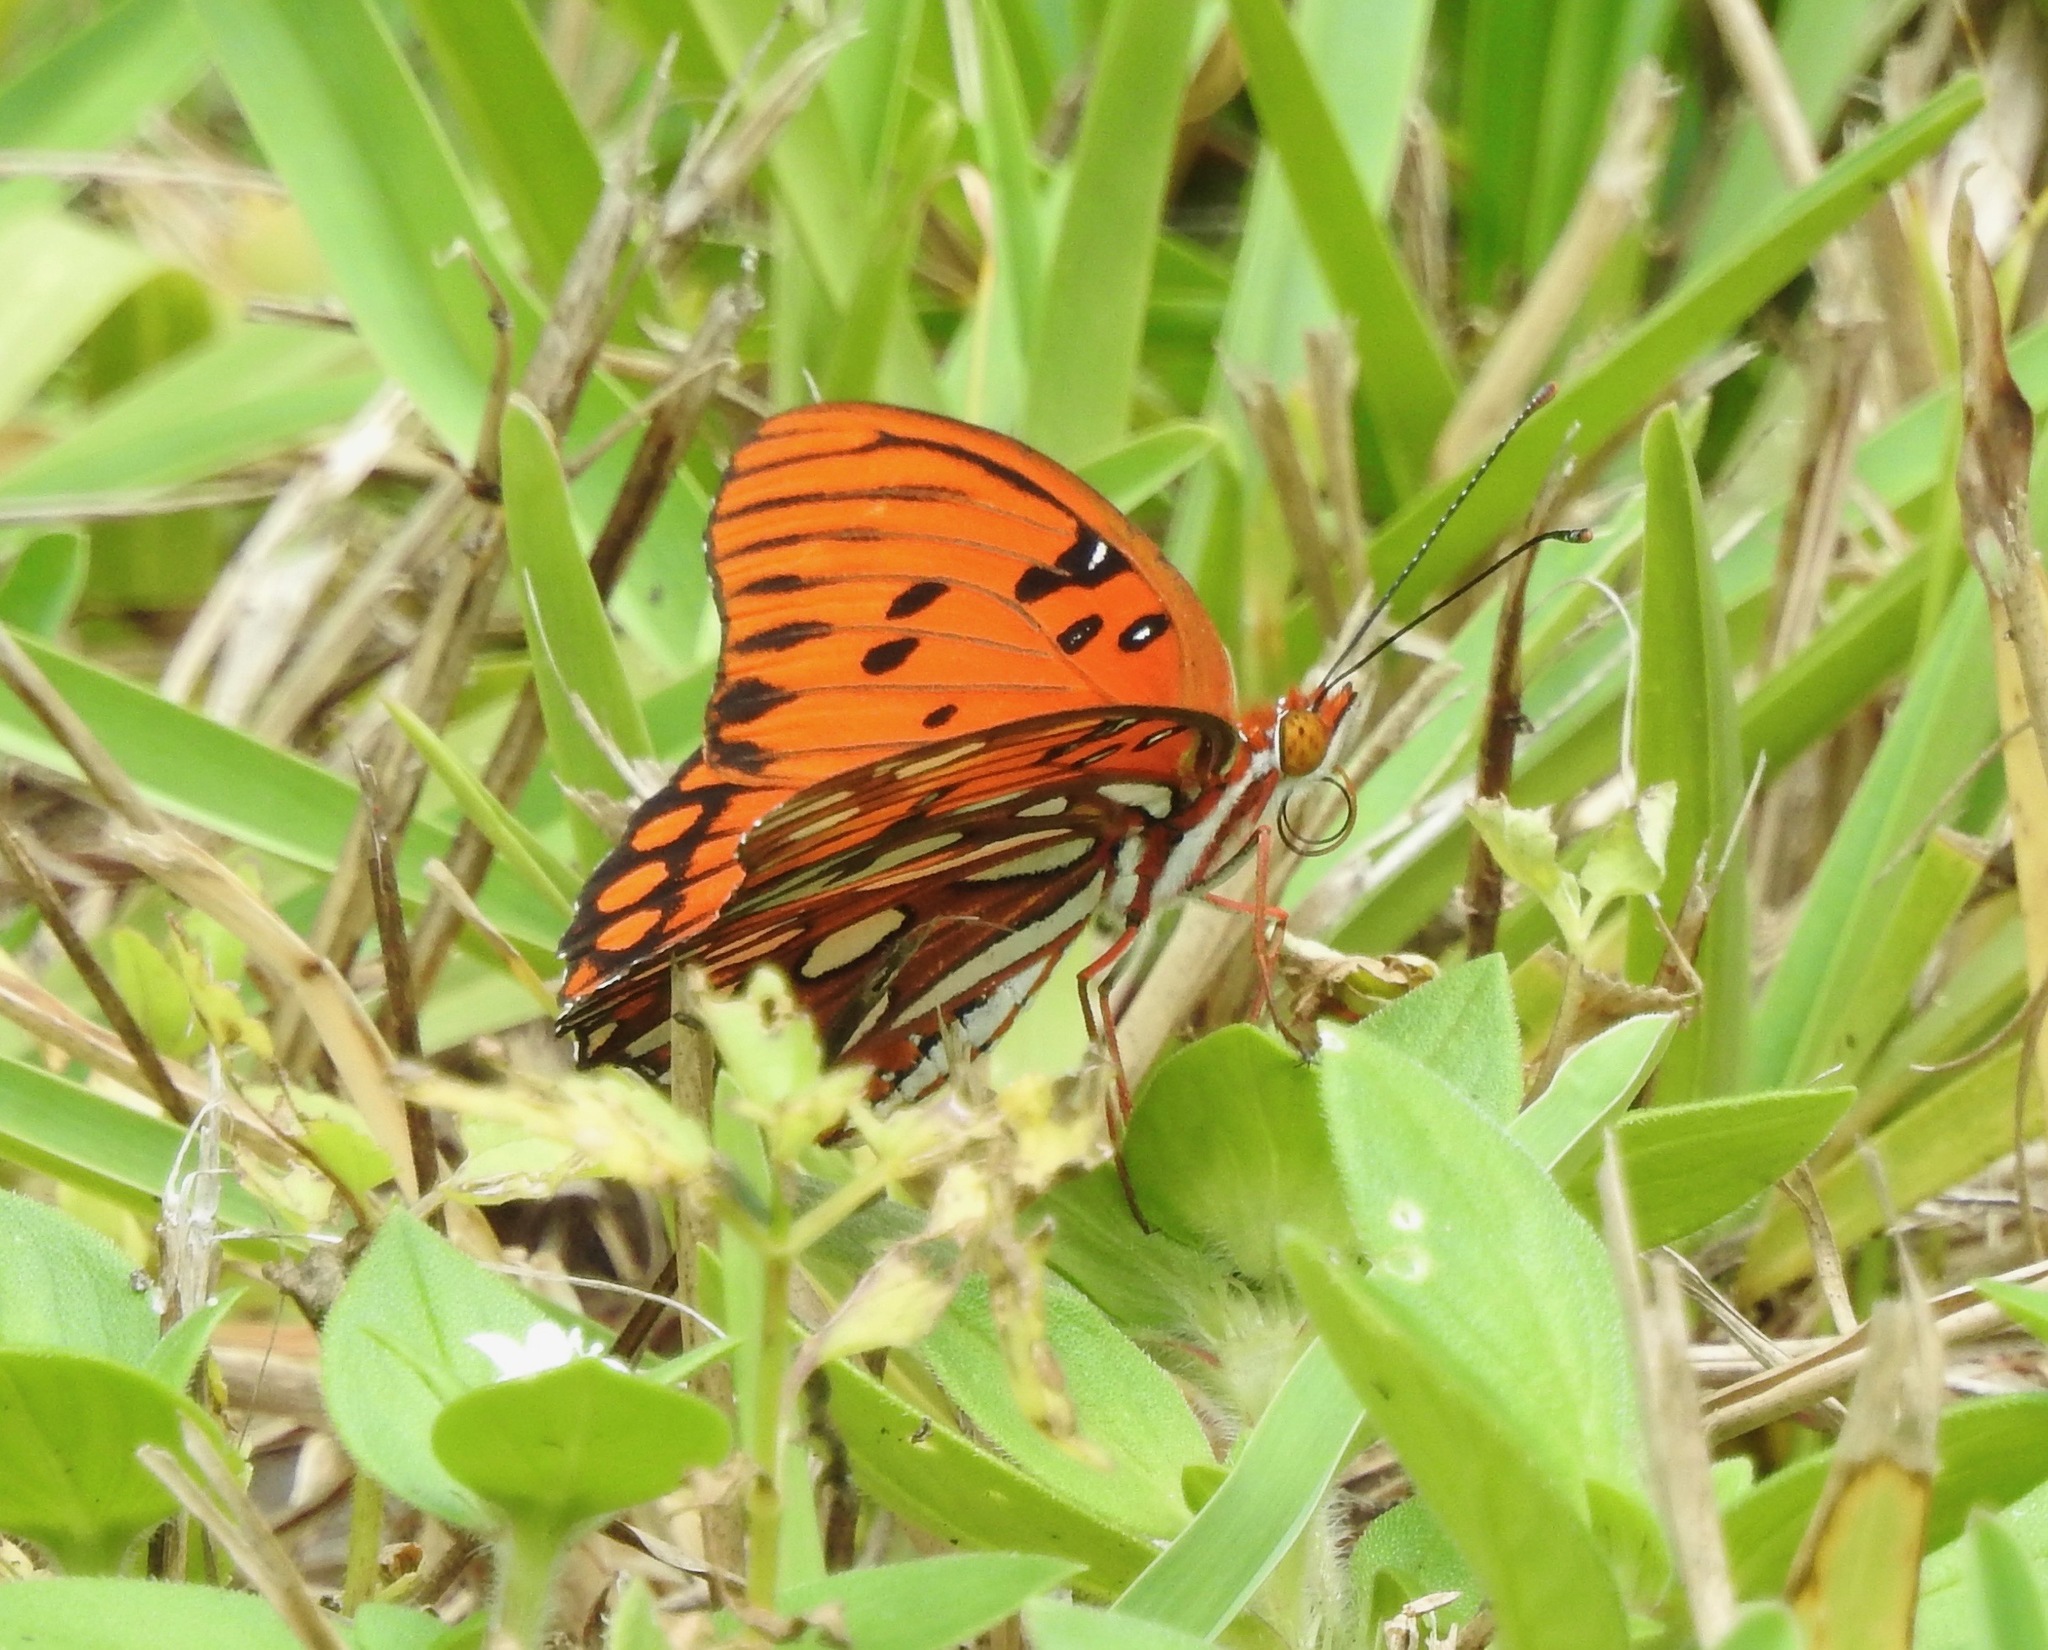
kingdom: Animalia
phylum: Arthropoda
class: Insecta
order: Lepidoptera
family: Nymphalidae
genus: Dione
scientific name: Dione vanillae
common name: Gulf fritillary
